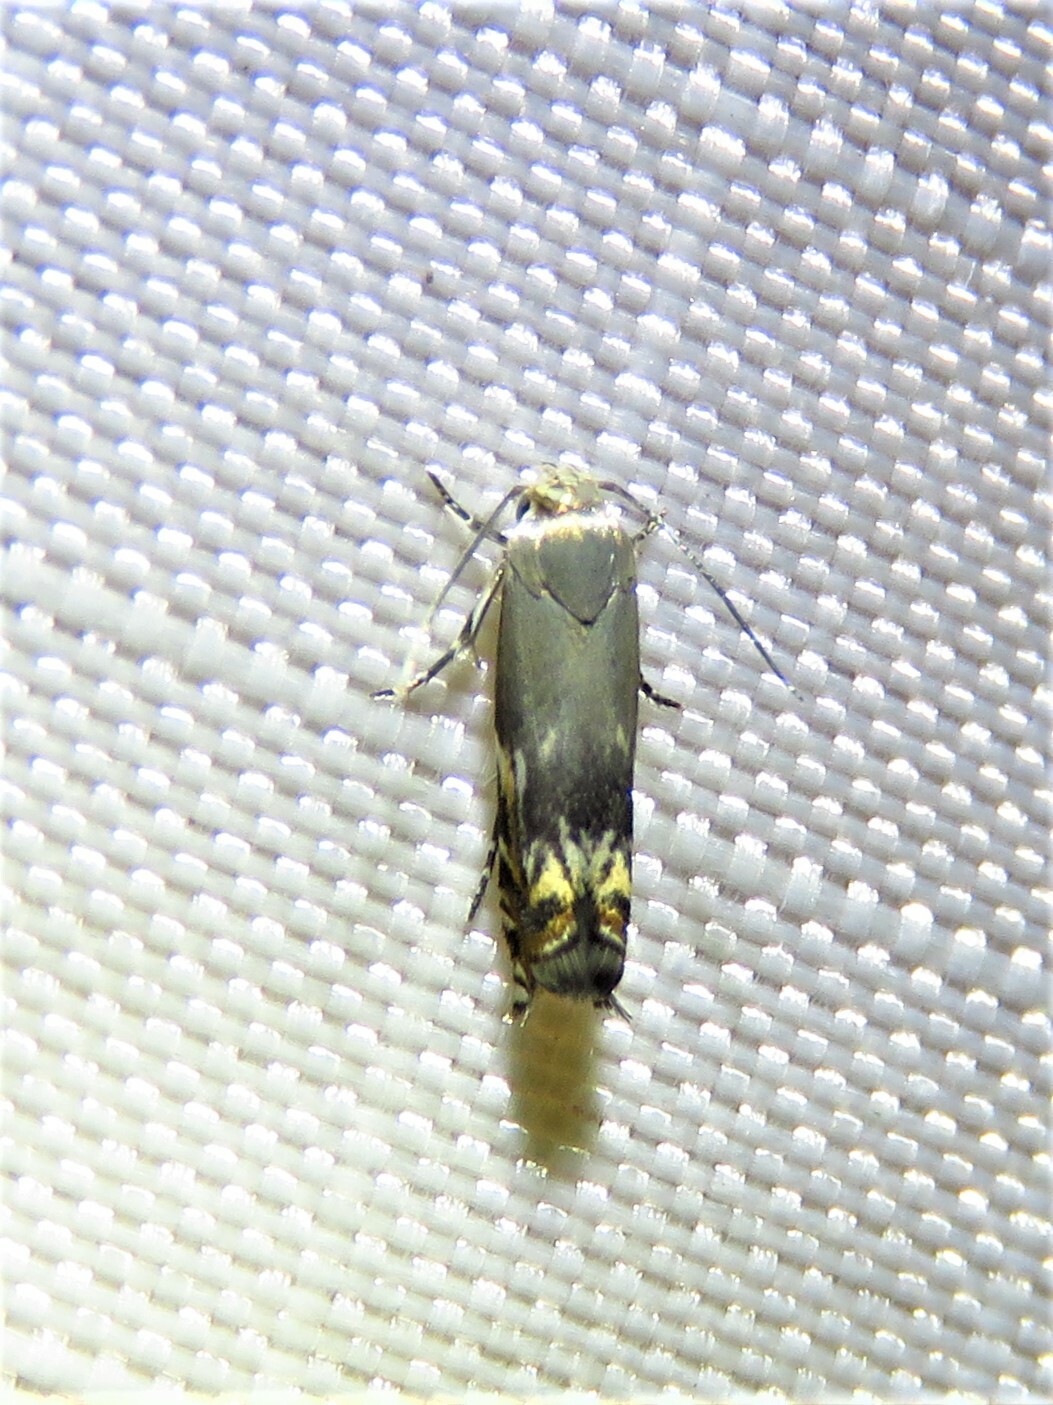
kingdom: Animalia
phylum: Arthropoda
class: Insecta
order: Lepidoptera
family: Gelechiidae
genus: Calliprora
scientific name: Calliprora sexstrigella
